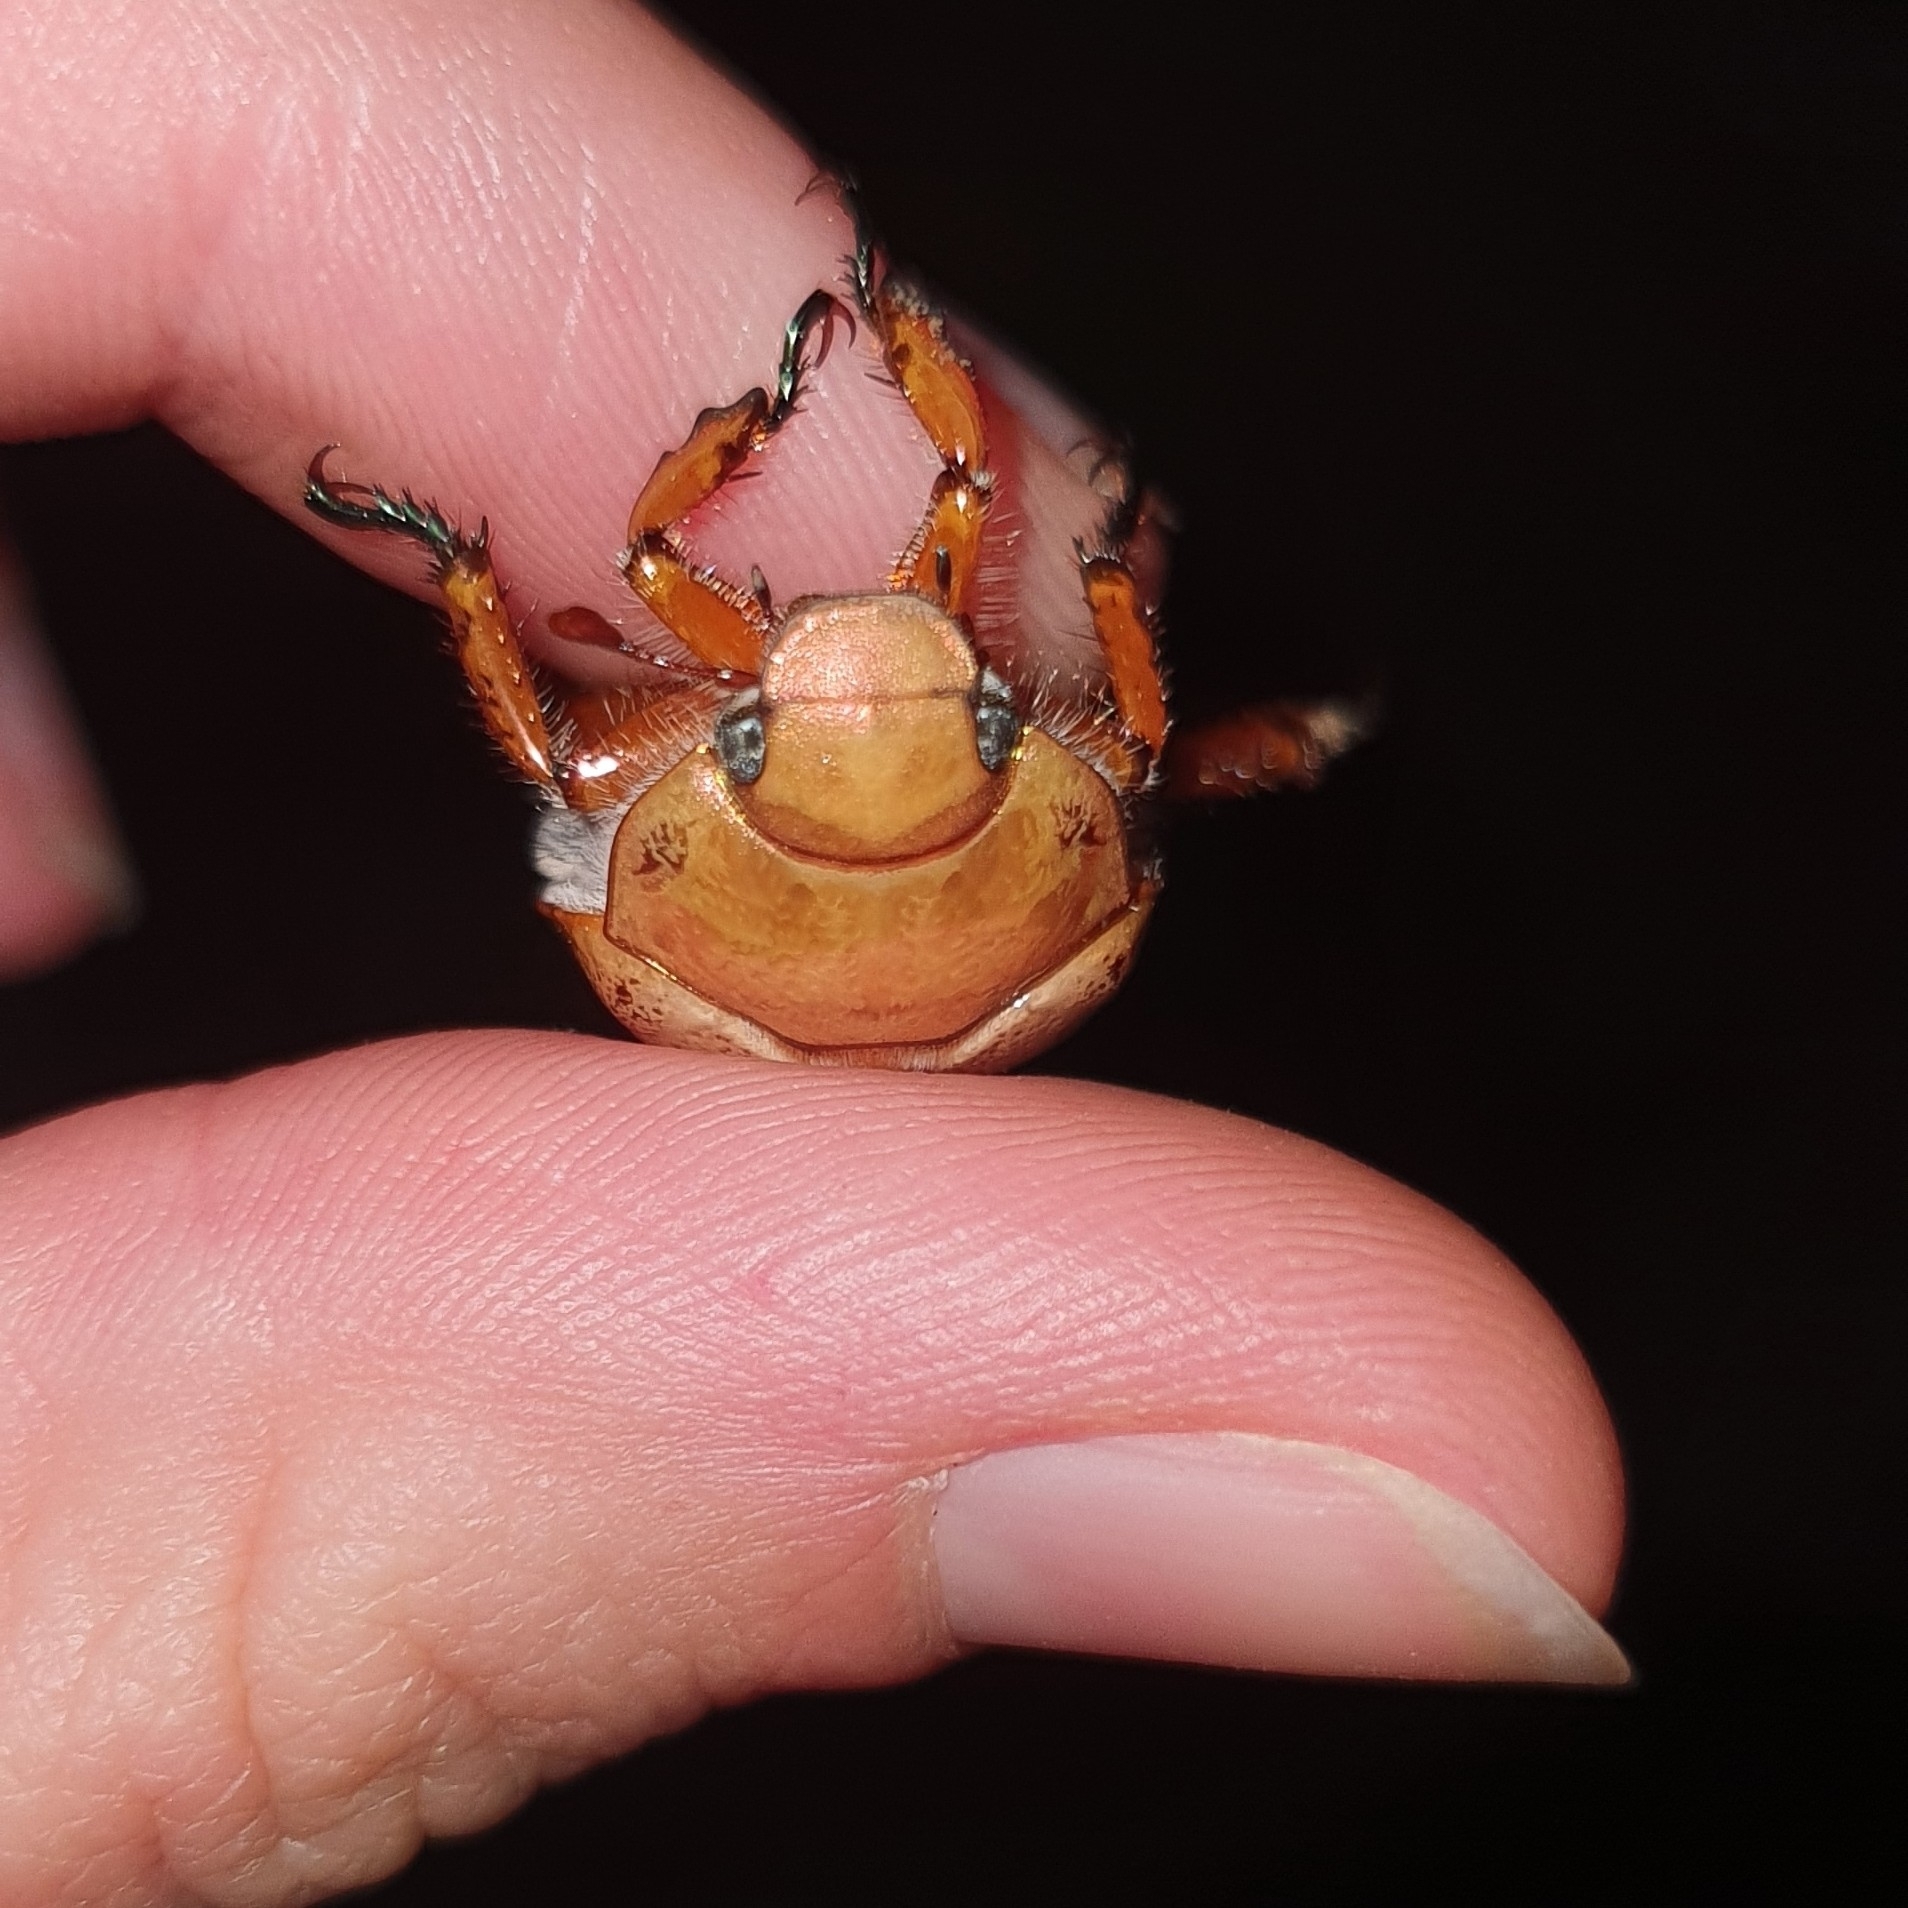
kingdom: Animalia
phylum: Arthropoda
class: Insecta
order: Coleoptera
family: Scarabaeidae
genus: Anoplognathus
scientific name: Anoplognathus porosus
